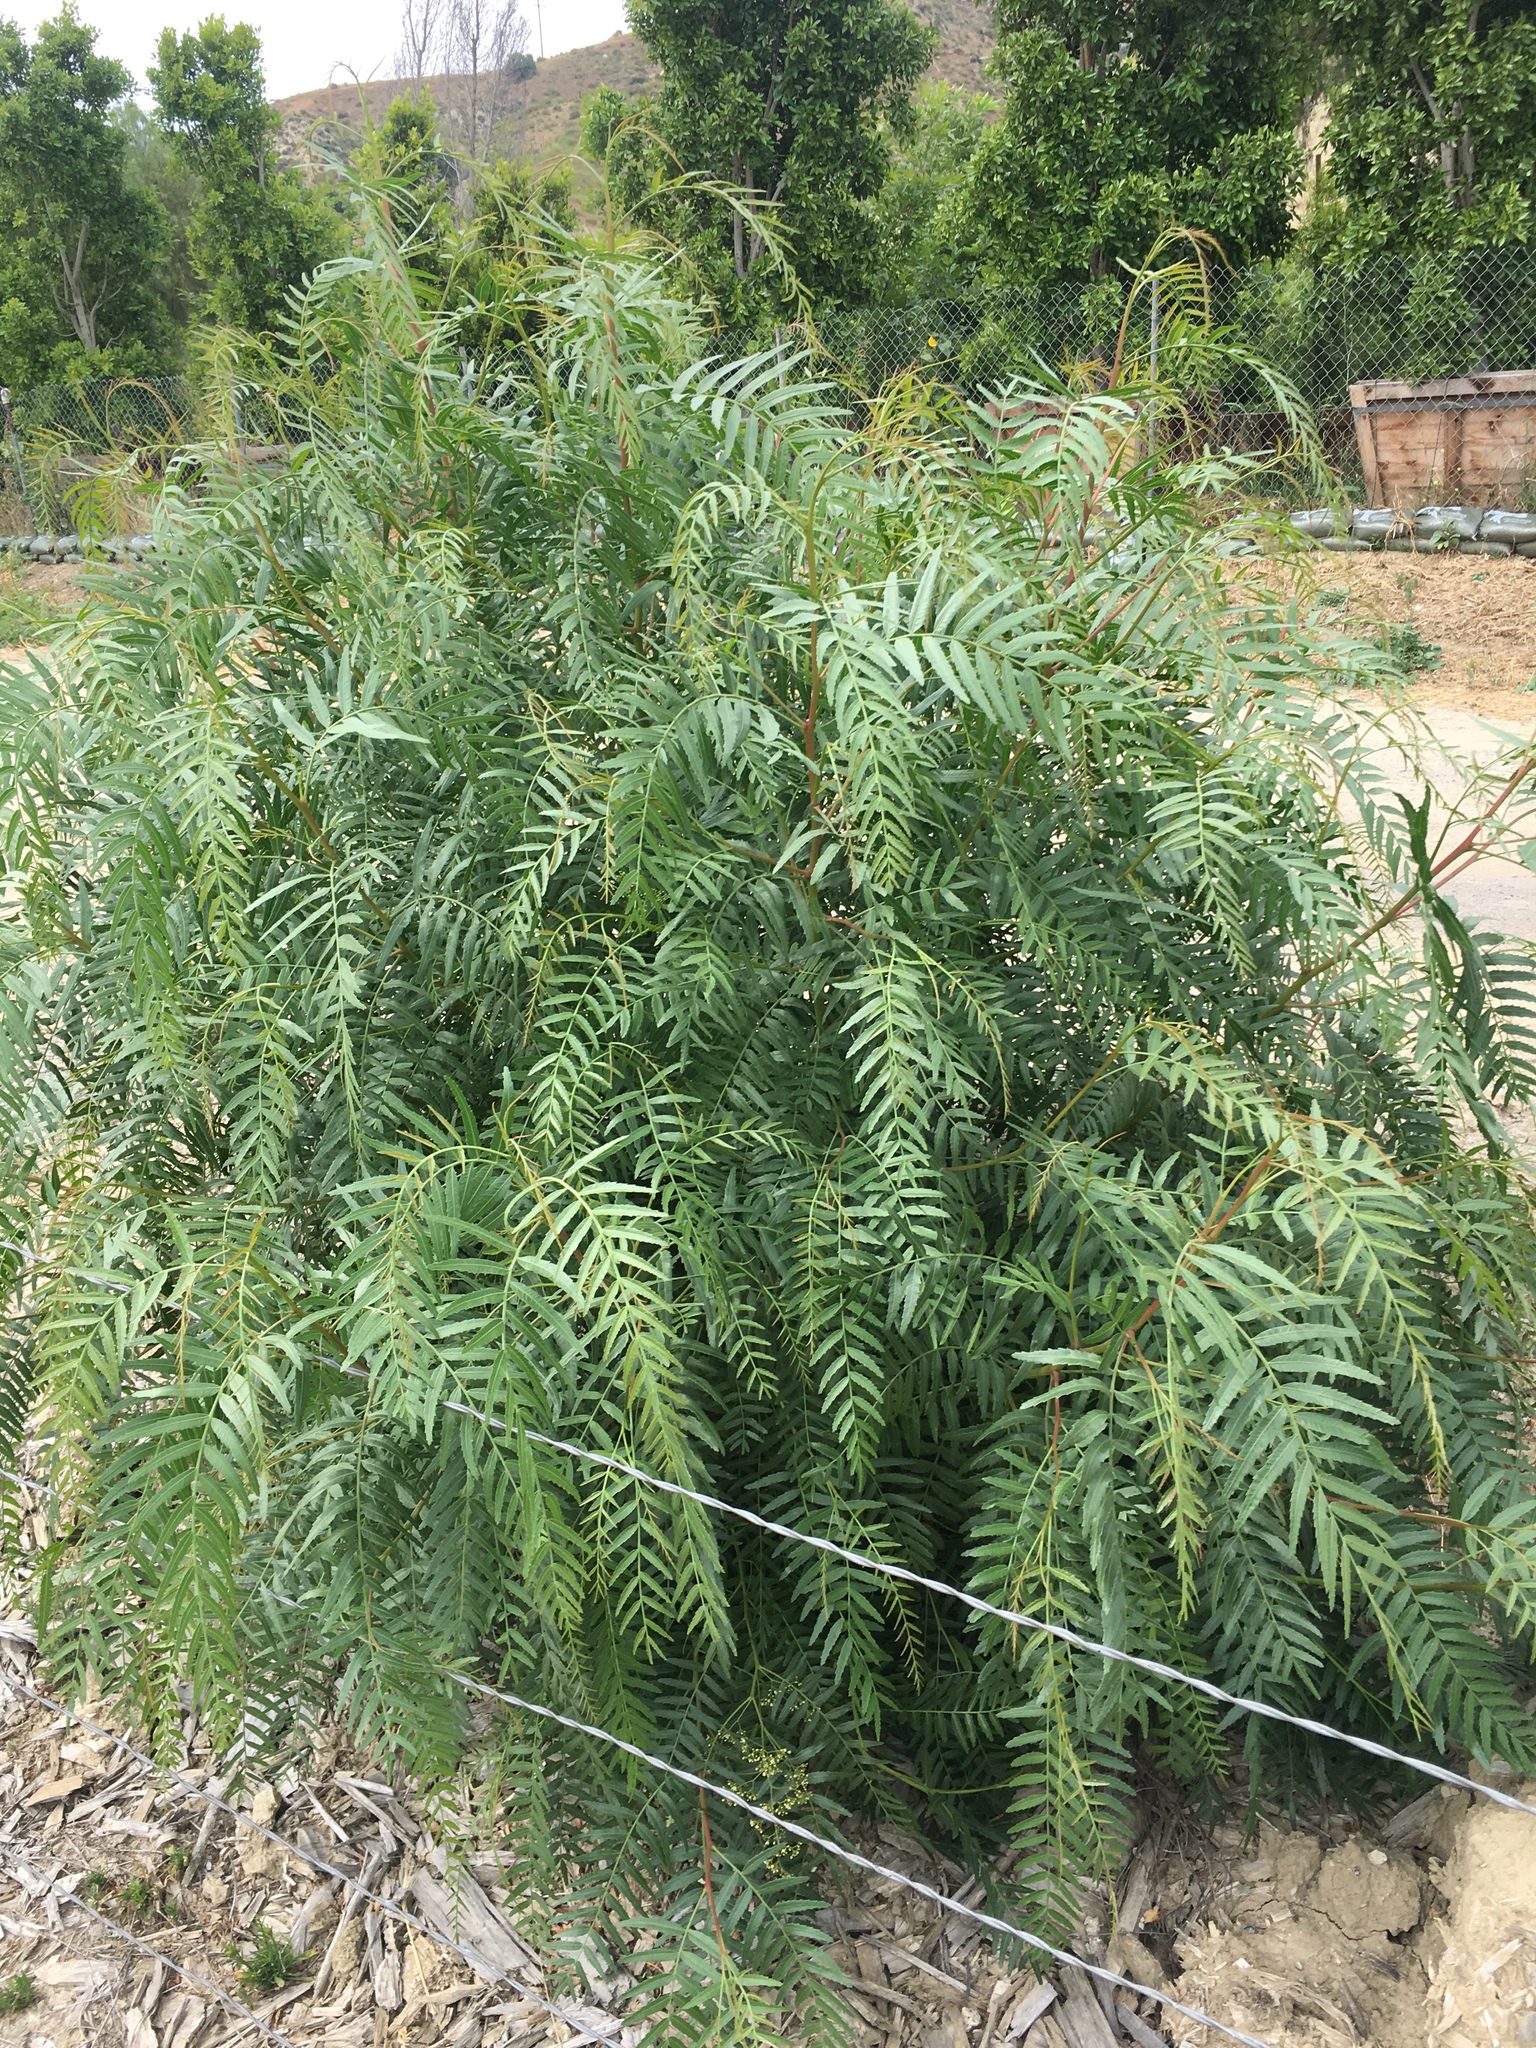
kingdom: Plantae
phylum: Tracheophyta
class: Magnoliopsida
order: Sapindales
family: Anacardiaceae
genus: Schinus
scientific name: Schinus molle
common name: Peruvian peppertree
